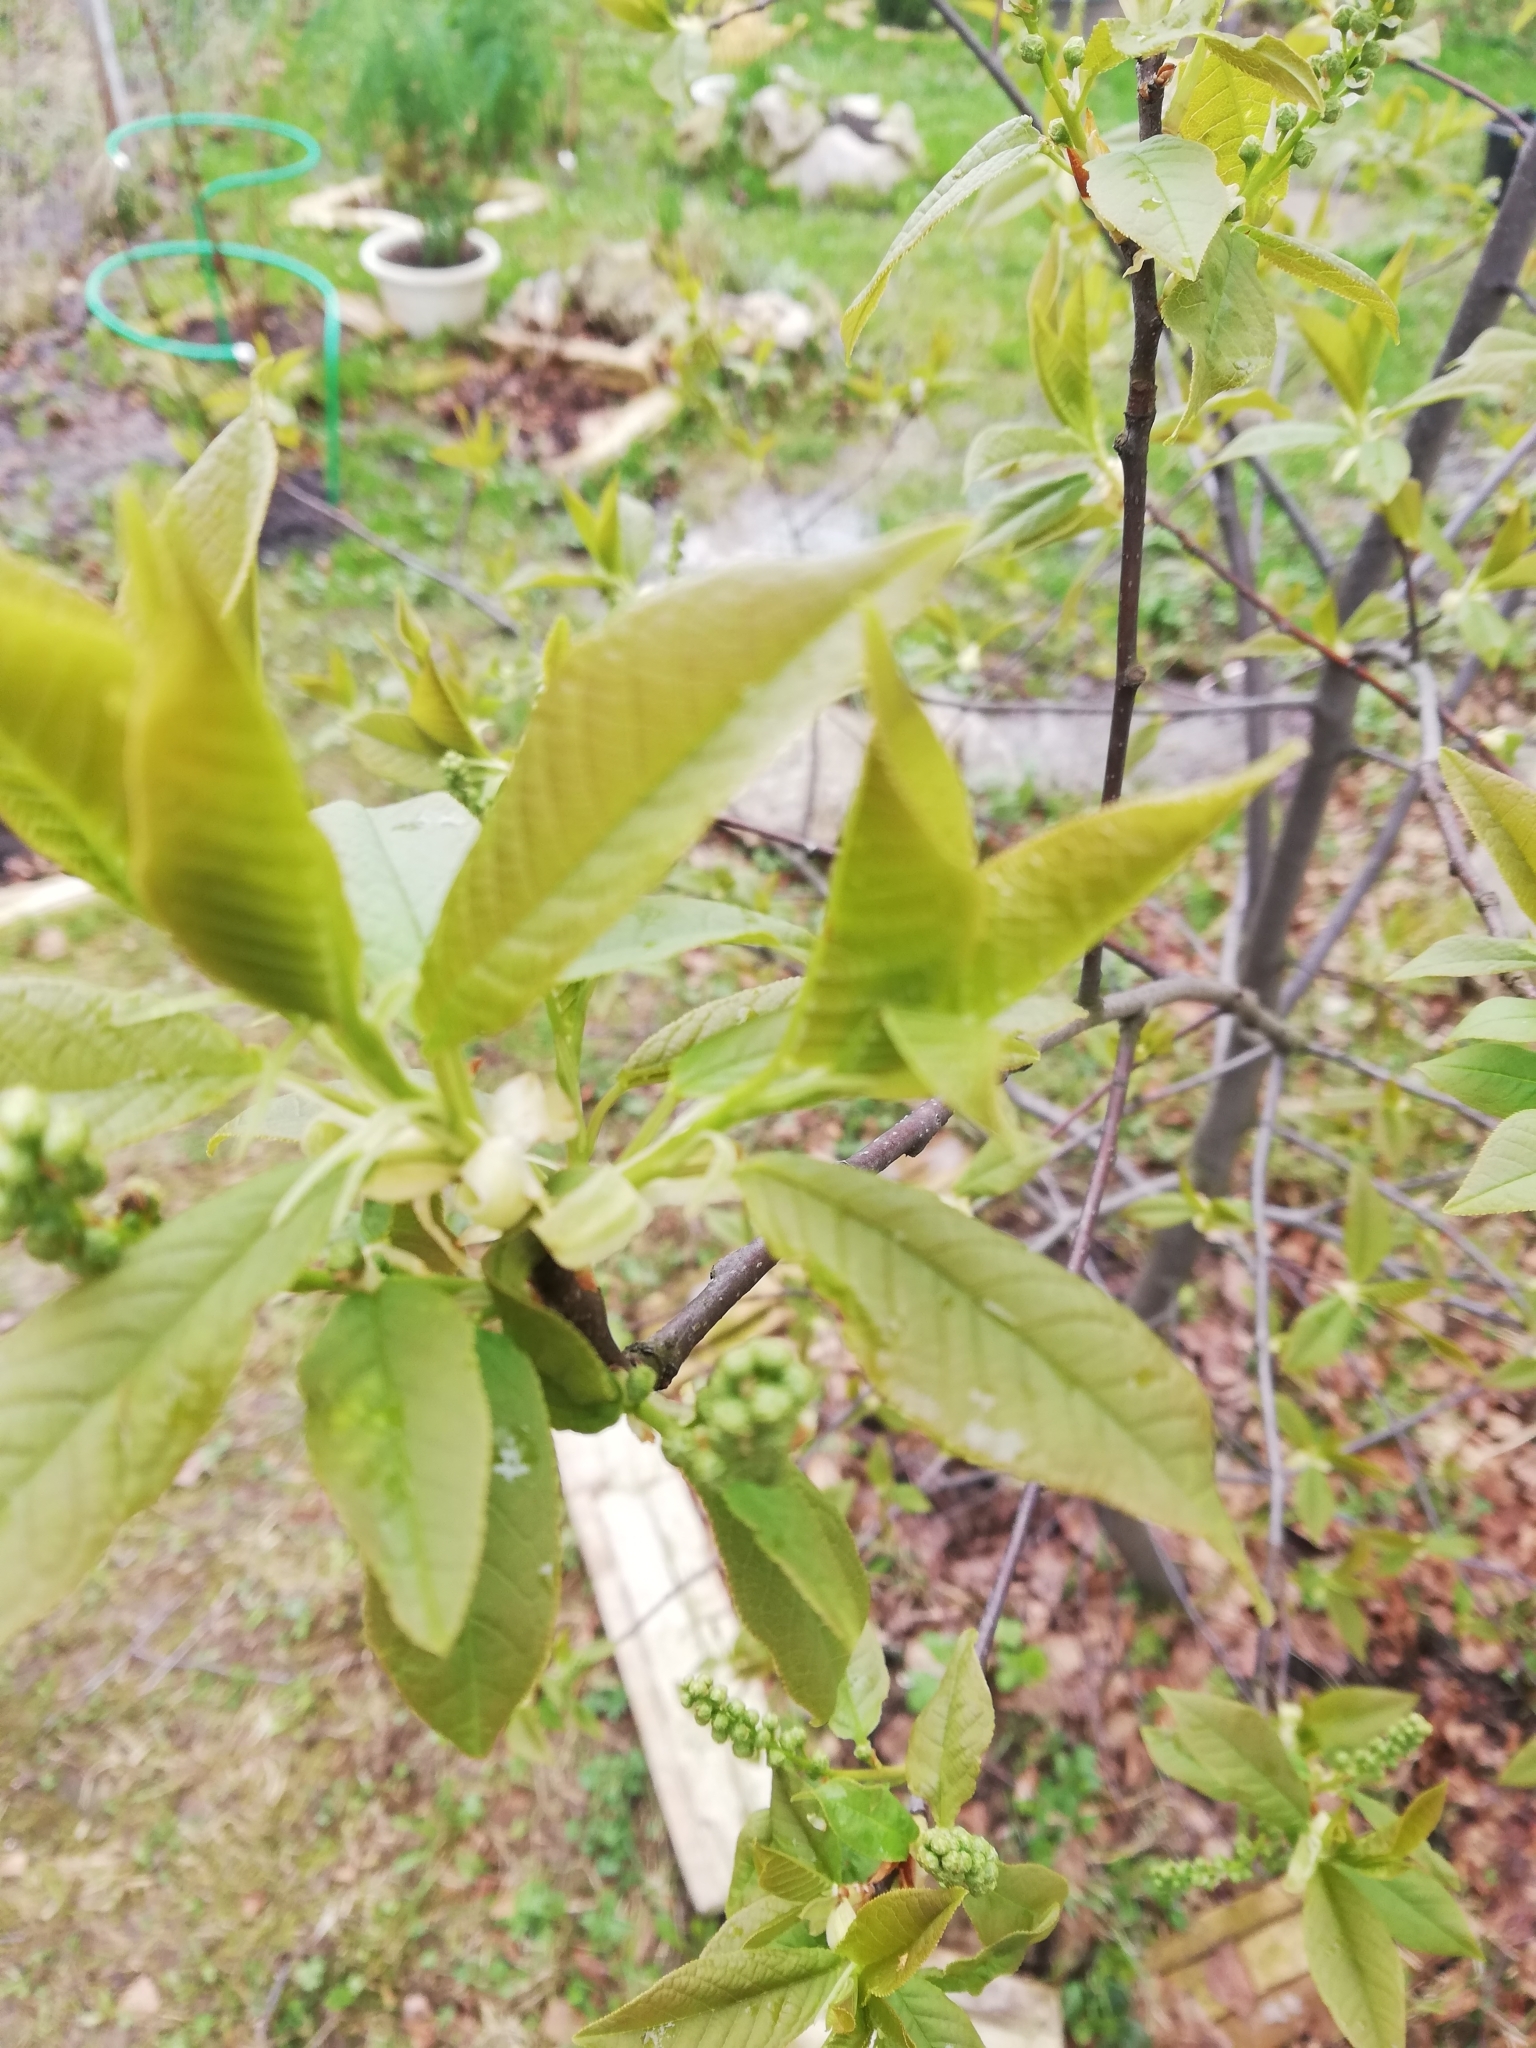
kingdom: Plantae
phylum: Tracheophyta
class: Magnoliopsida
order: Rosales
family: Rosaceae
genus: Prunus
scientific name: Prunus padus
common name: Bird cherry
